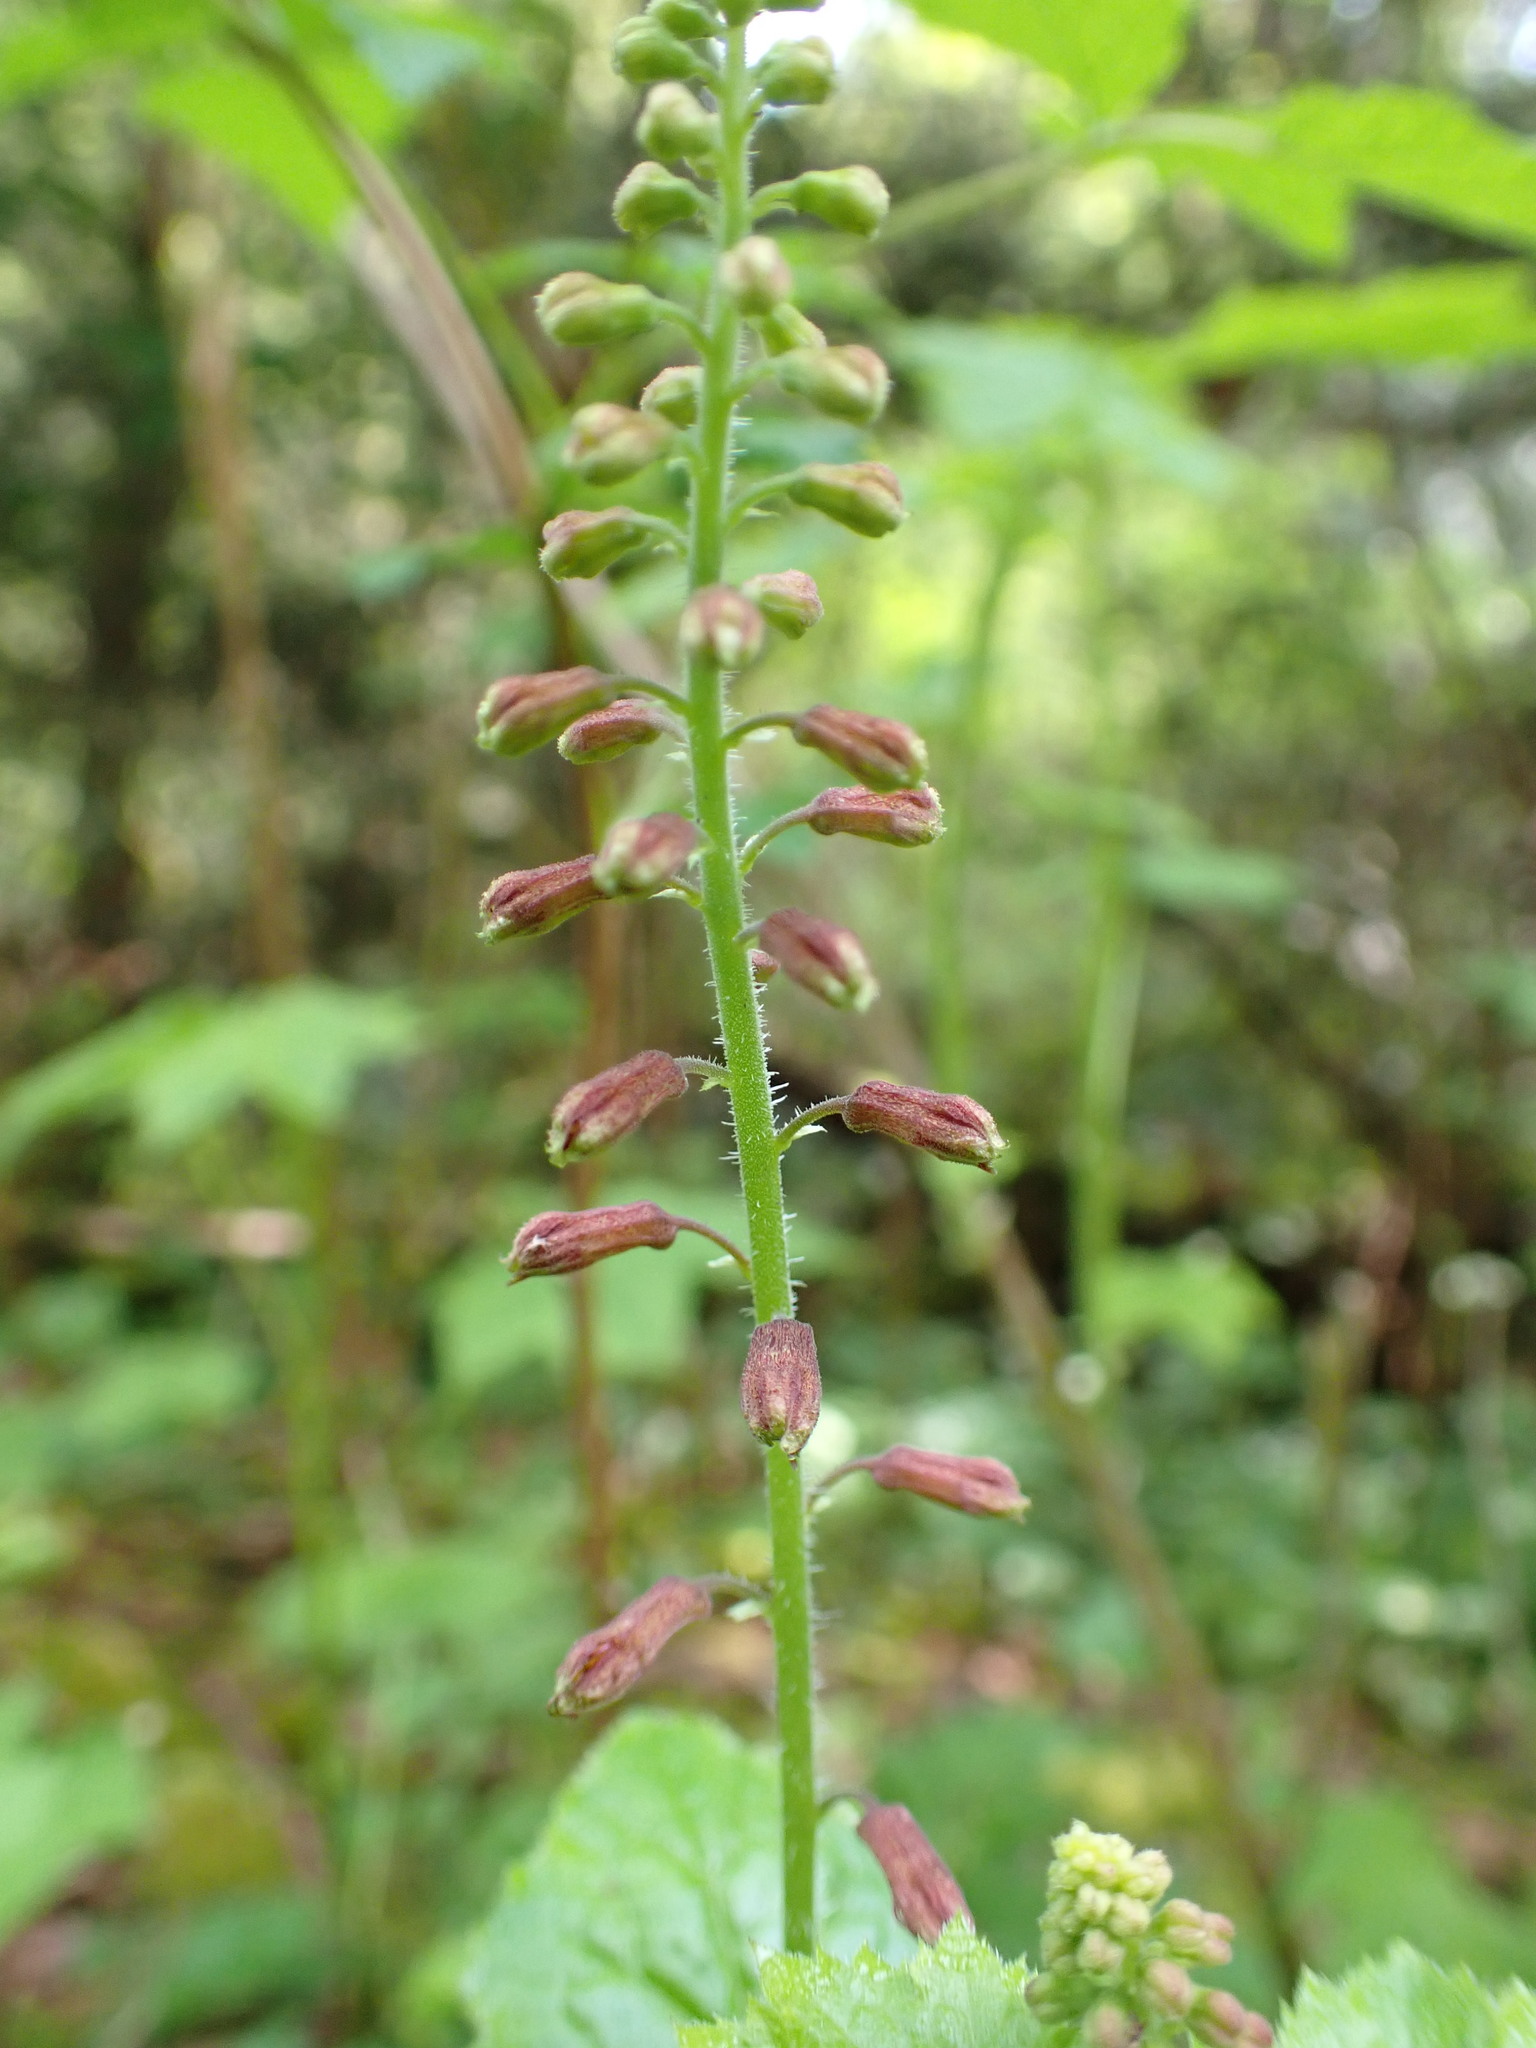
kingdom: Plantae
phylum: Tracheophyta
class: Magnoliopsida
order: Saxifragales
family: Saxifragaceae
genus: Tolmiea
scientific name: Tolmiea menziesii
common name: Pick-a-back-plant
